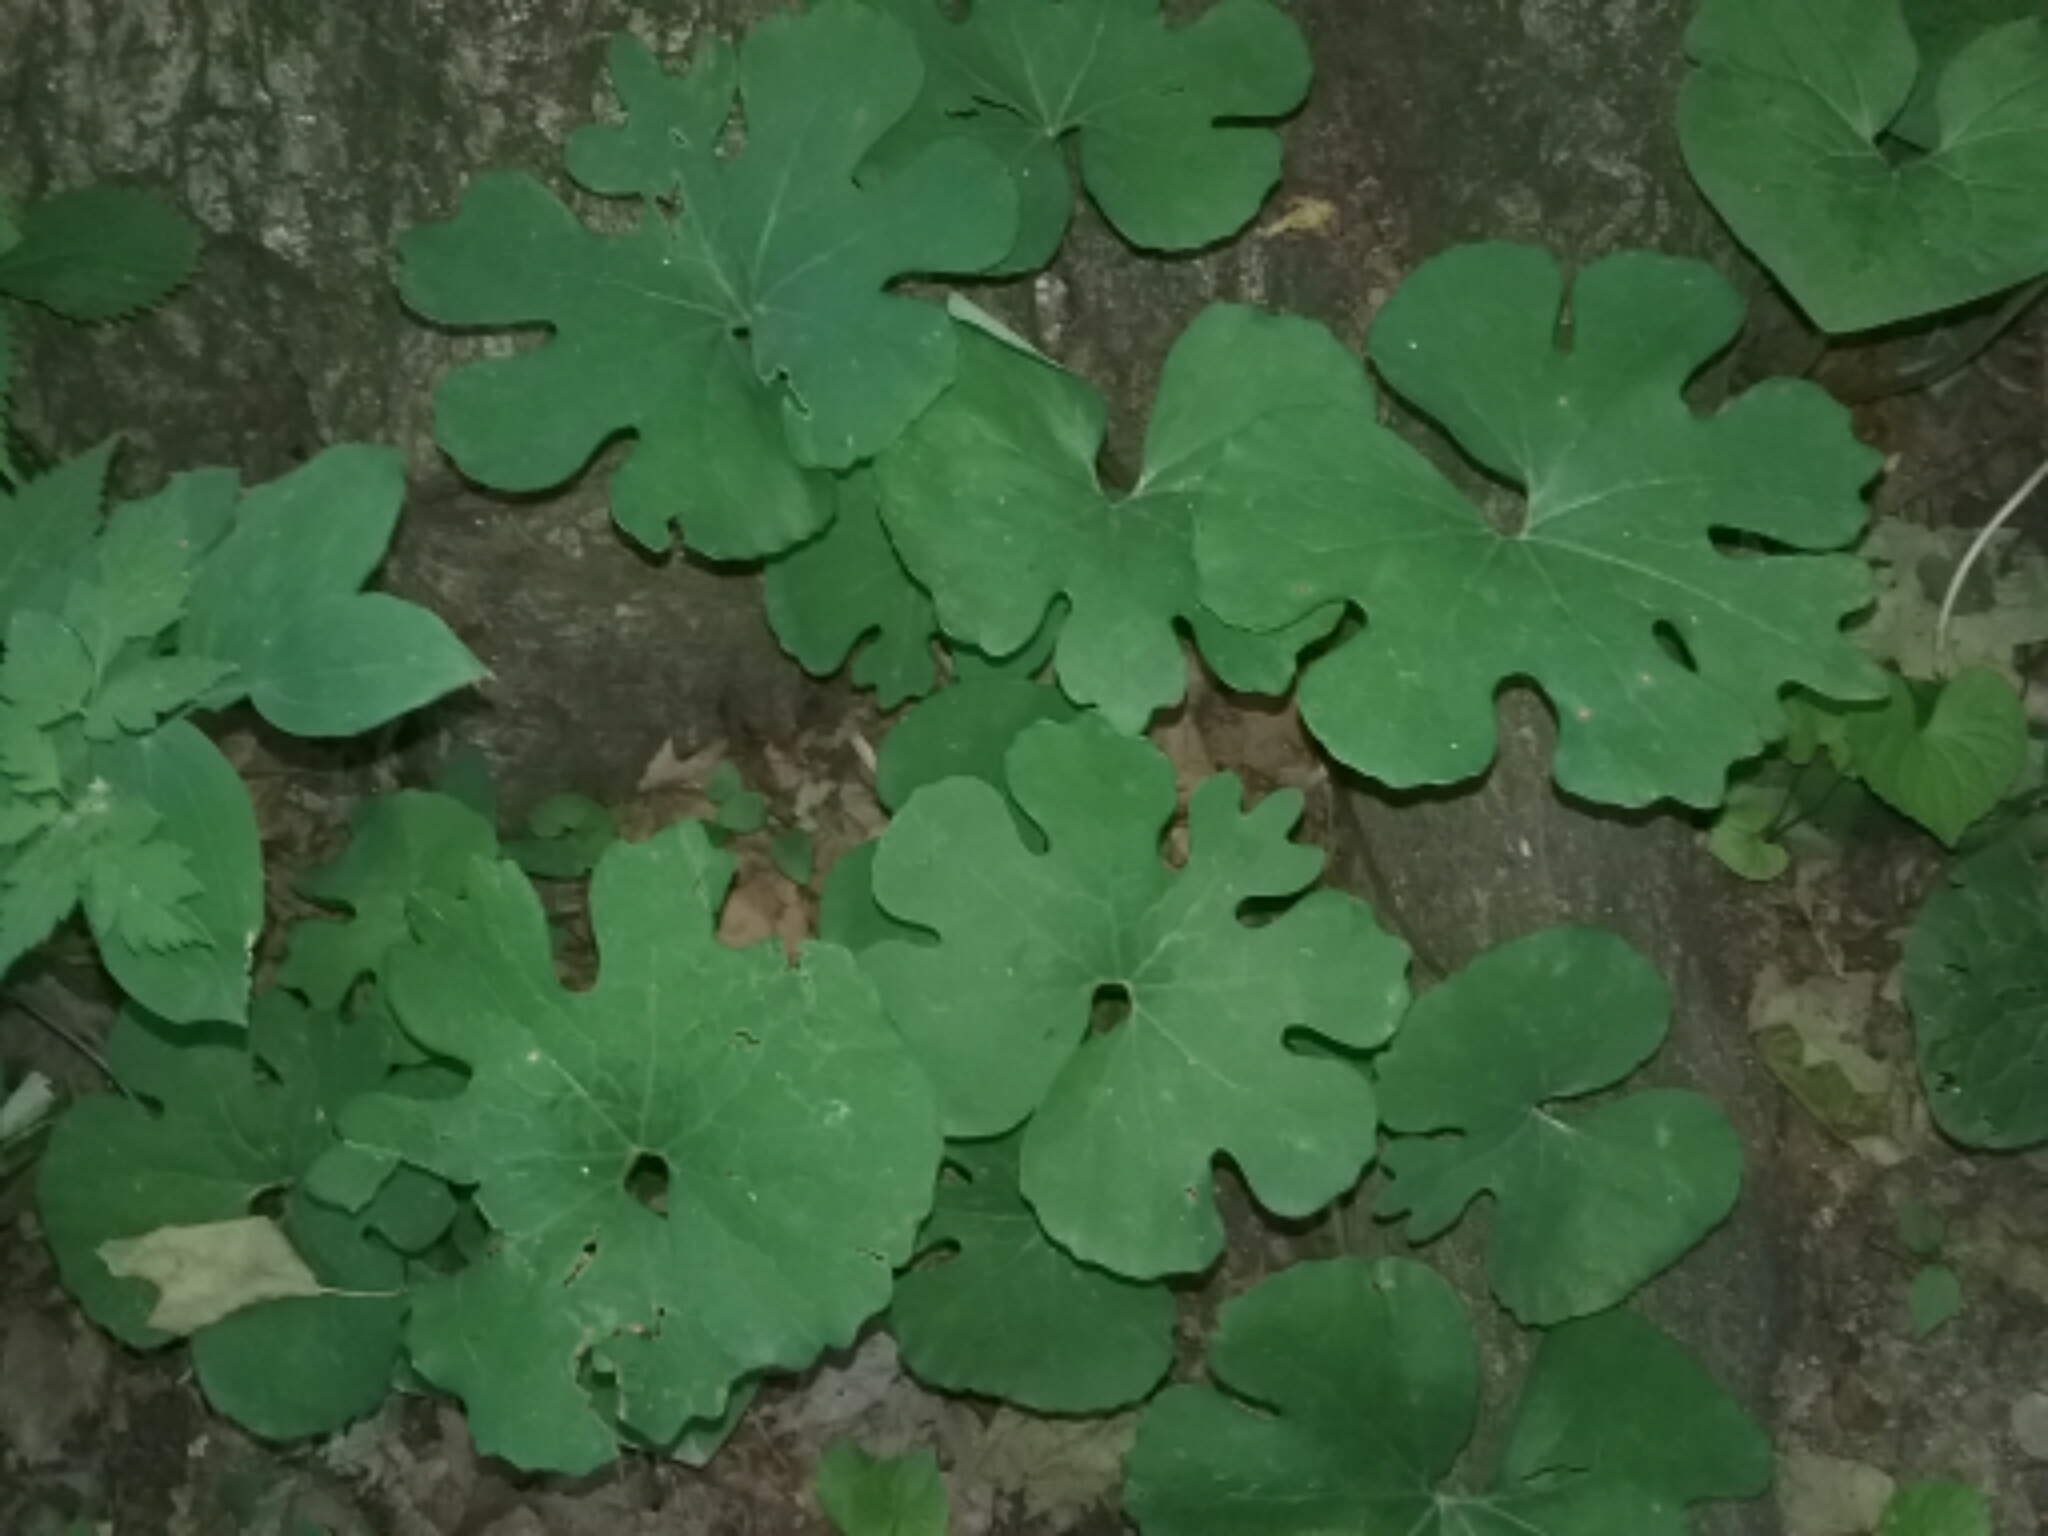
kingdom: Plantae
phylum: Tracheophyta
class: Magnoliopsida
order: Ranunculales
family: Papaveraceae
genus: Sanguinaria
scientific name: Sanguinaria canadensis
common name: Bloodroot
